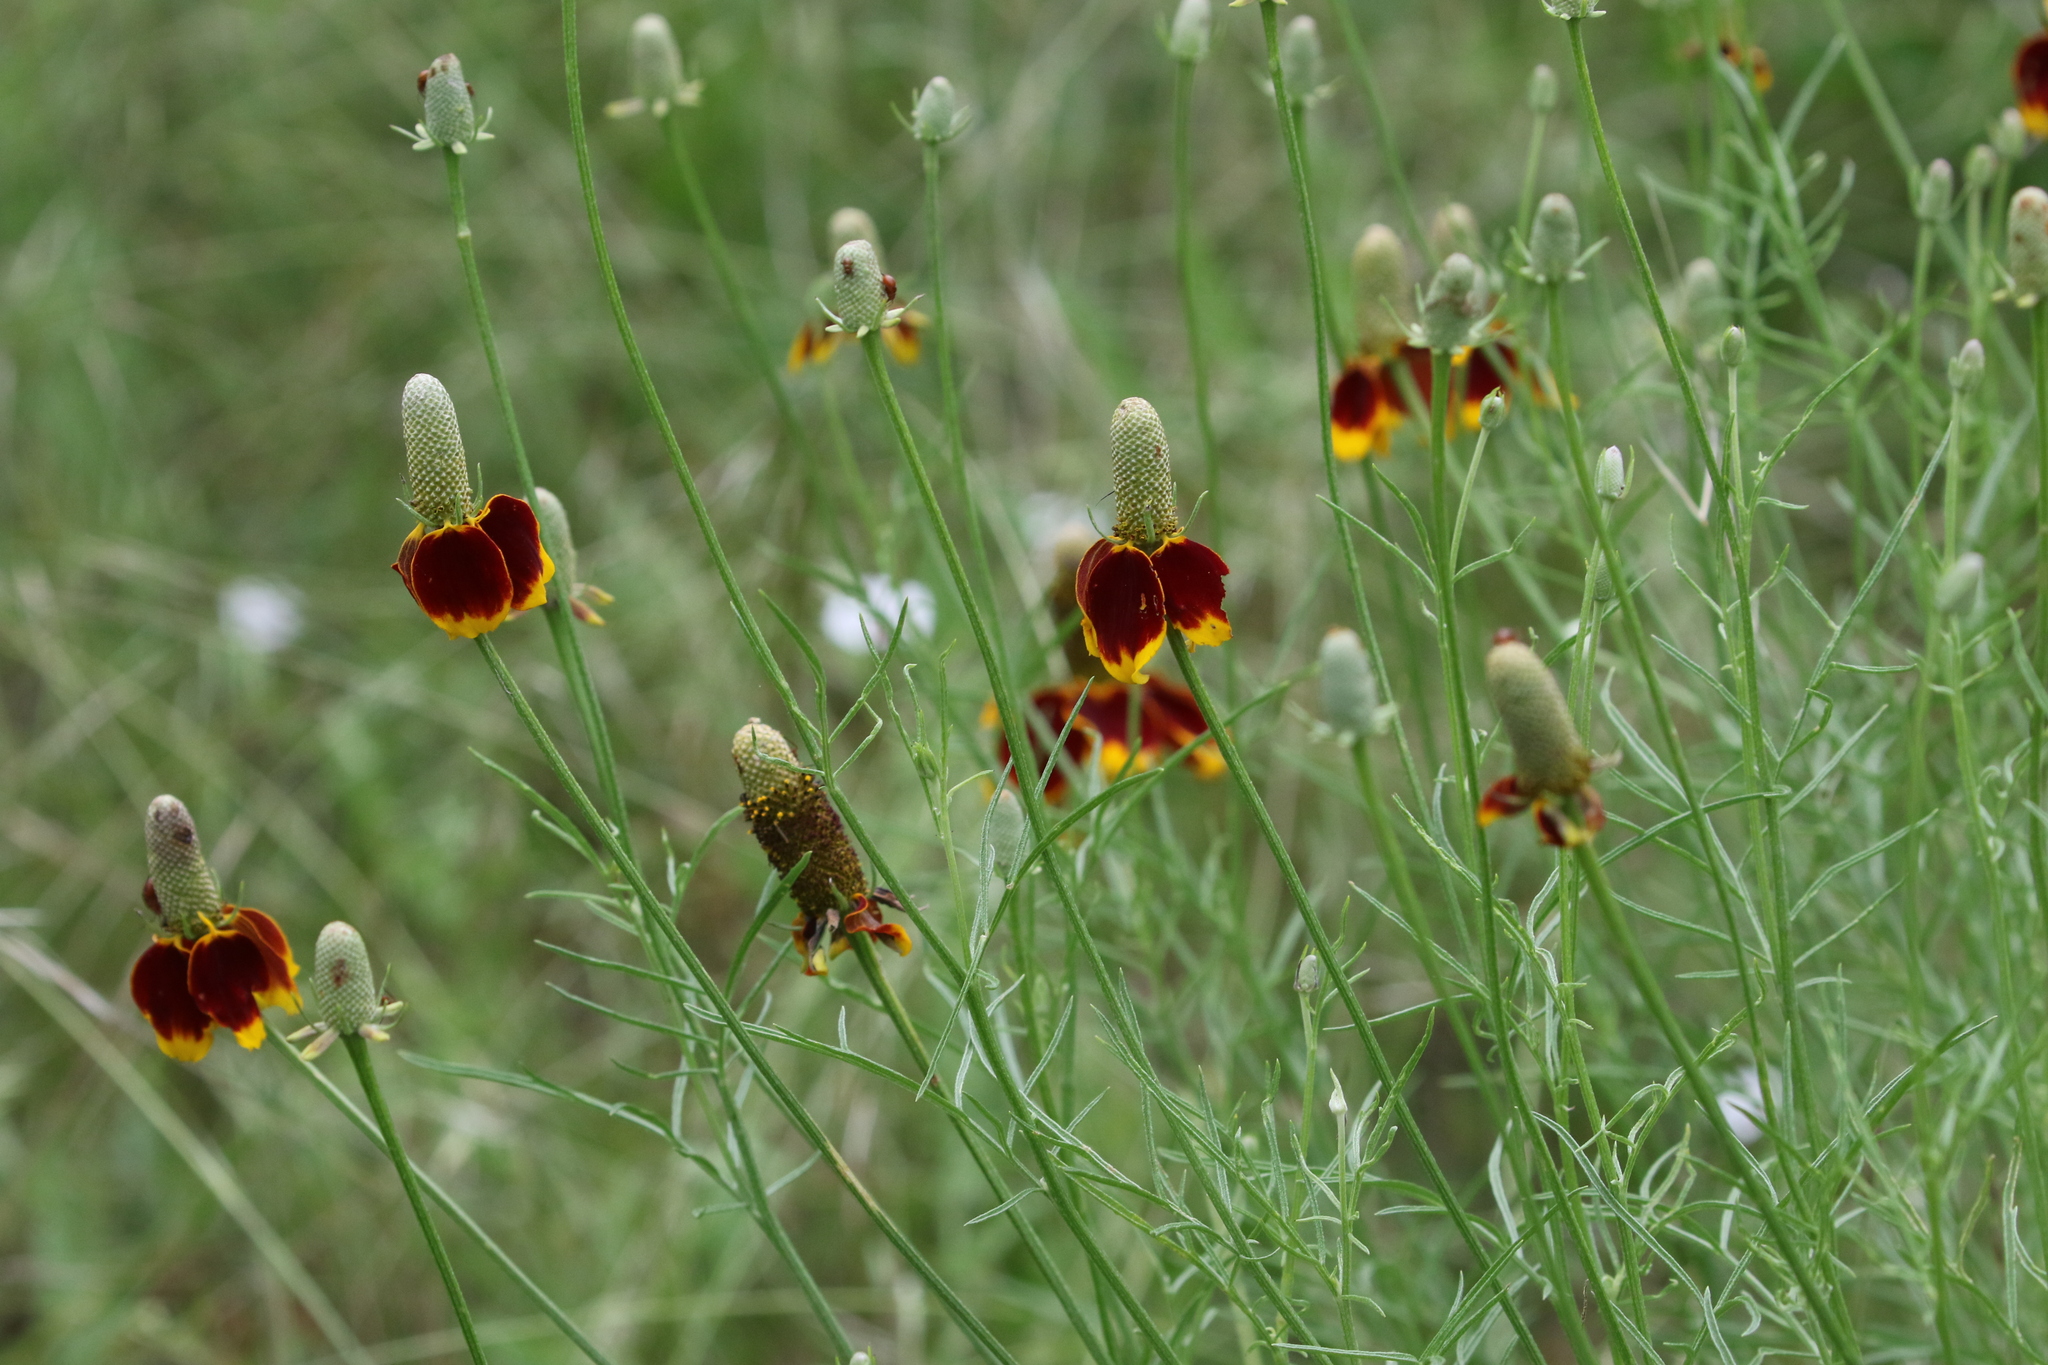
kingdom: Plantae
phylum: Tracheophyta
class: Magnoliopsida
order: Asterales
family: Asteraceae
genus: Ratibida
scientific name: Ratibida columnifera
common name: Prairie coneflower
